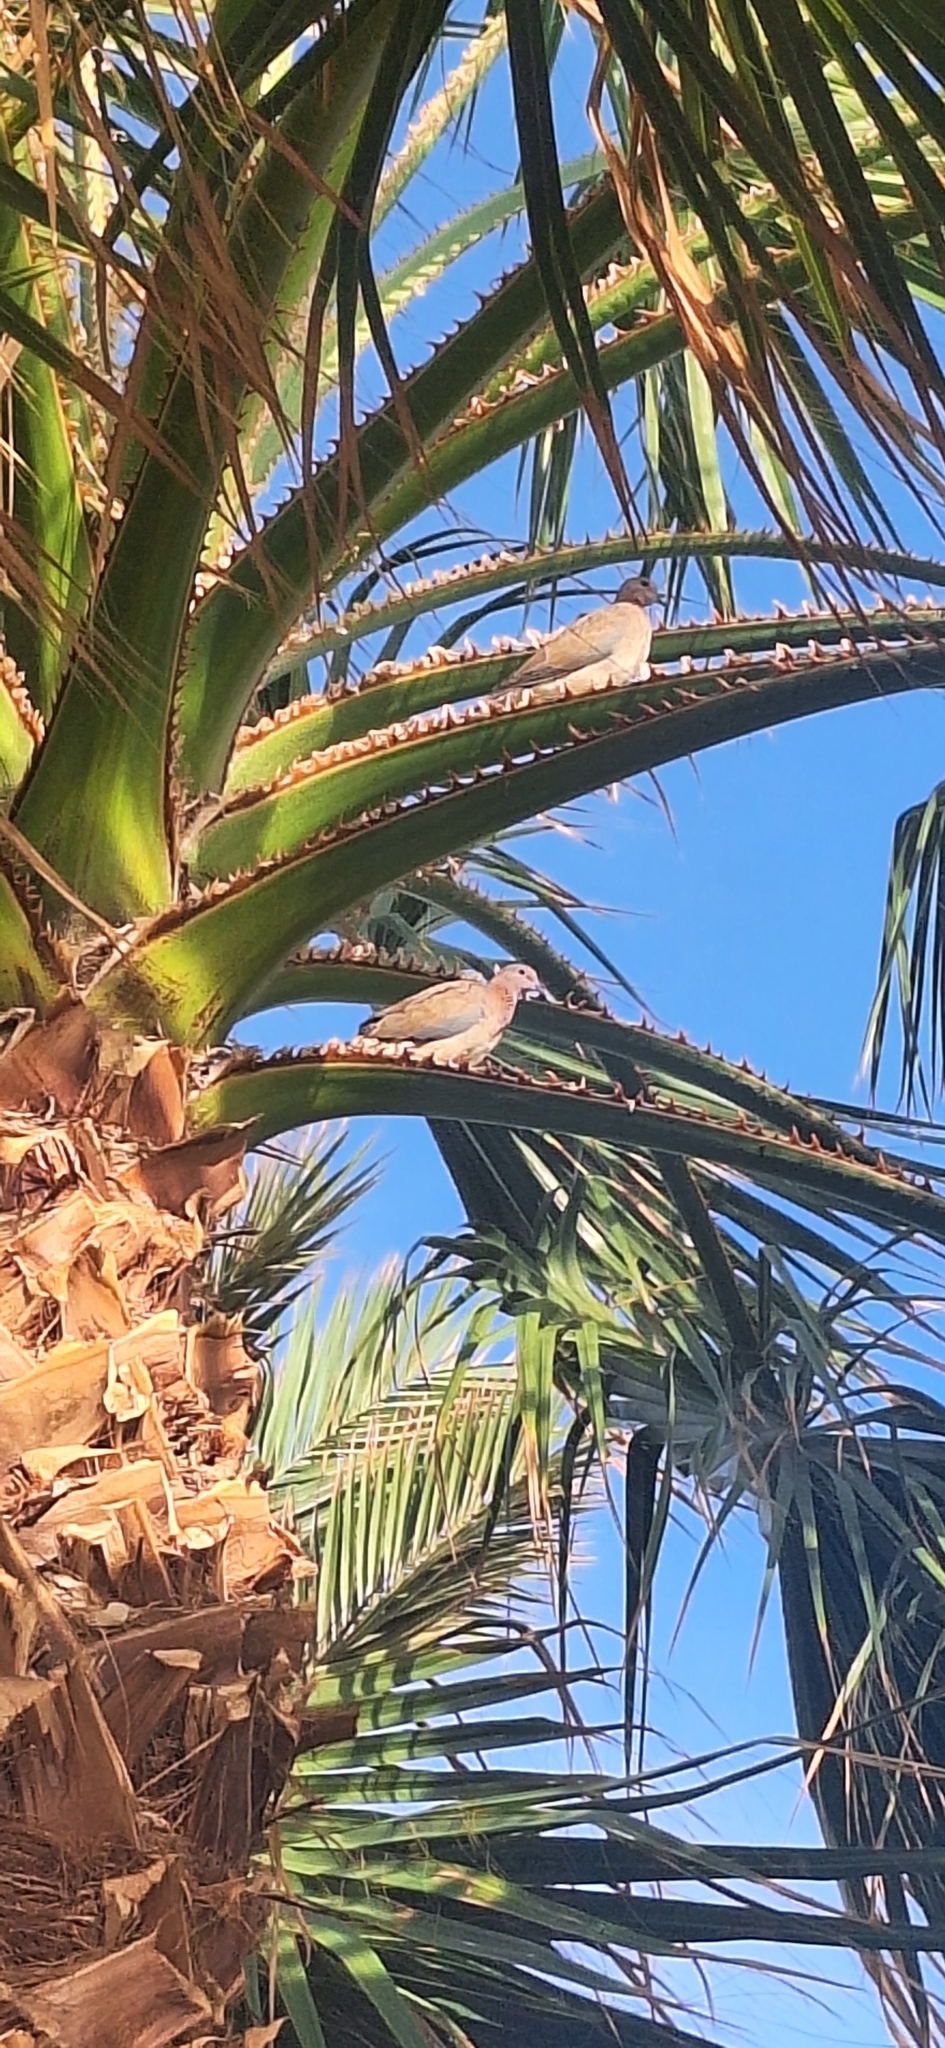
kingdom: Animalia
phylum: Chordata
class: Aves
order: Columbiformes
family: Columbidae
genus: Spilopelia
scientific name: Spilopelia senegalensis
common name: Laughing dove
